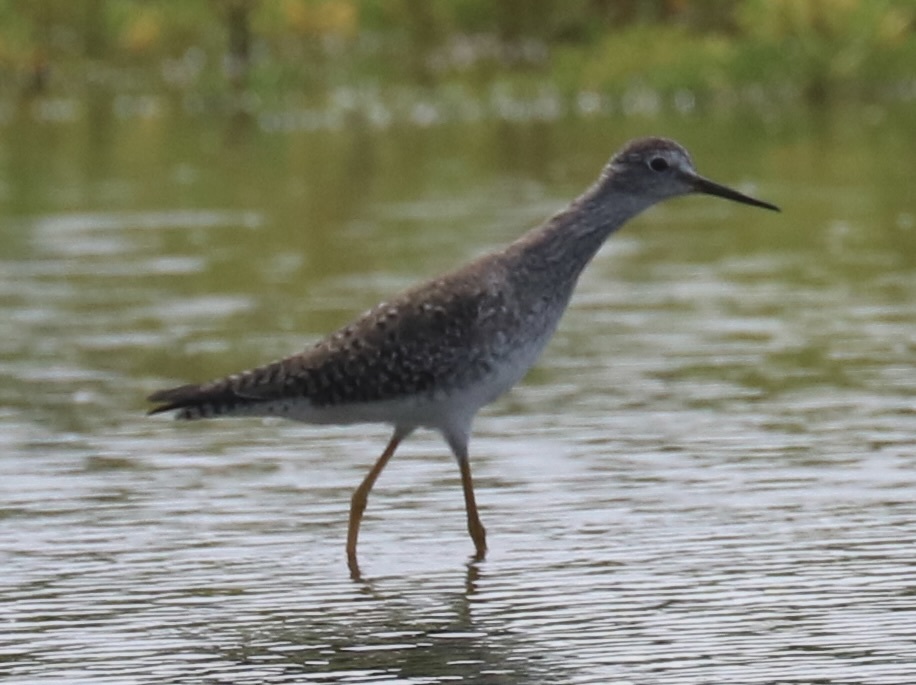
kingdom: Animalia
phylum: Chordata
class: Aves
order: Charadriiformes
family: Scolopacidae
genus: Tringa
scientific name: Tringa flavipes
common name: Lesser yellowlegs
